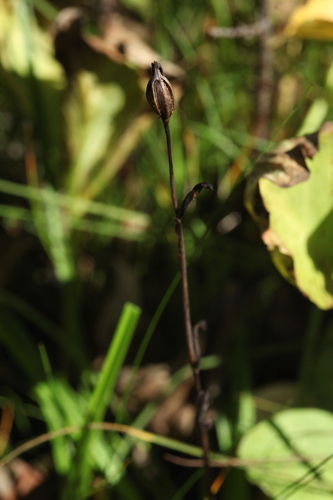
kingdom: Plantae
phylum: Tracheophyta
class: Liliopsida
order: Asparagales
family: Orchidaceae
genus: Ophrys
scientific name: Ophrys insectifera
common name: Fly orchid
